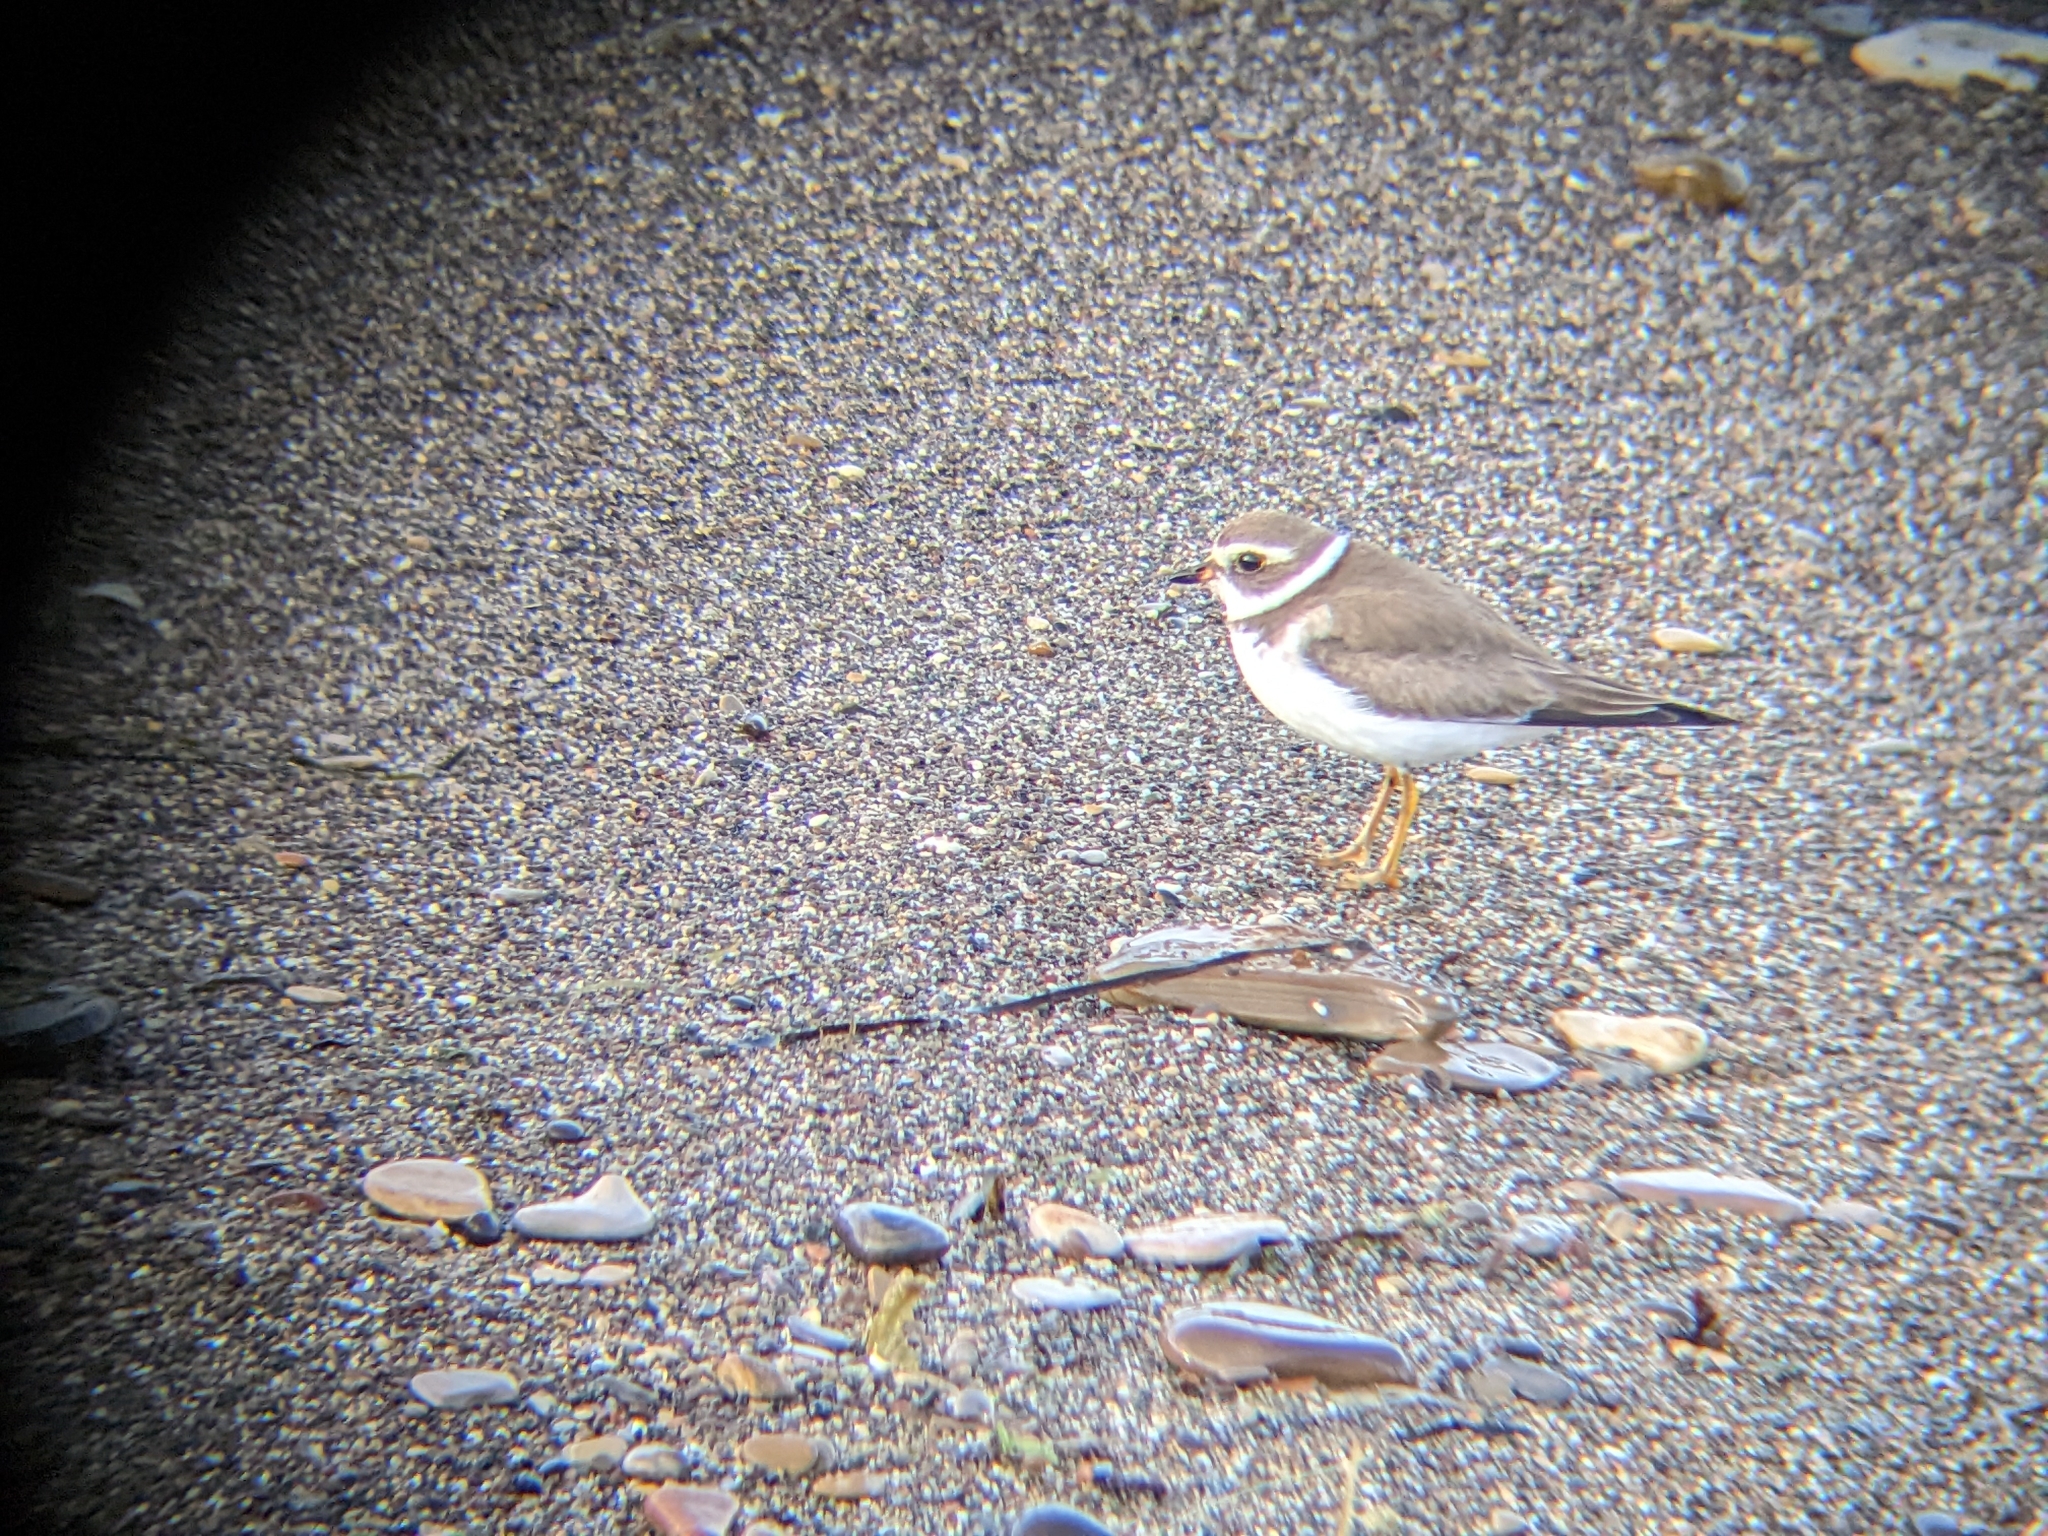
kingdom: Animalia
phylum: Chordata
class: Aves
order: Charadriiformes
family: Charadriidae
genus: Charadrius
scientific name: Charadrius semipalmatus
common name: Semipalmated plover
